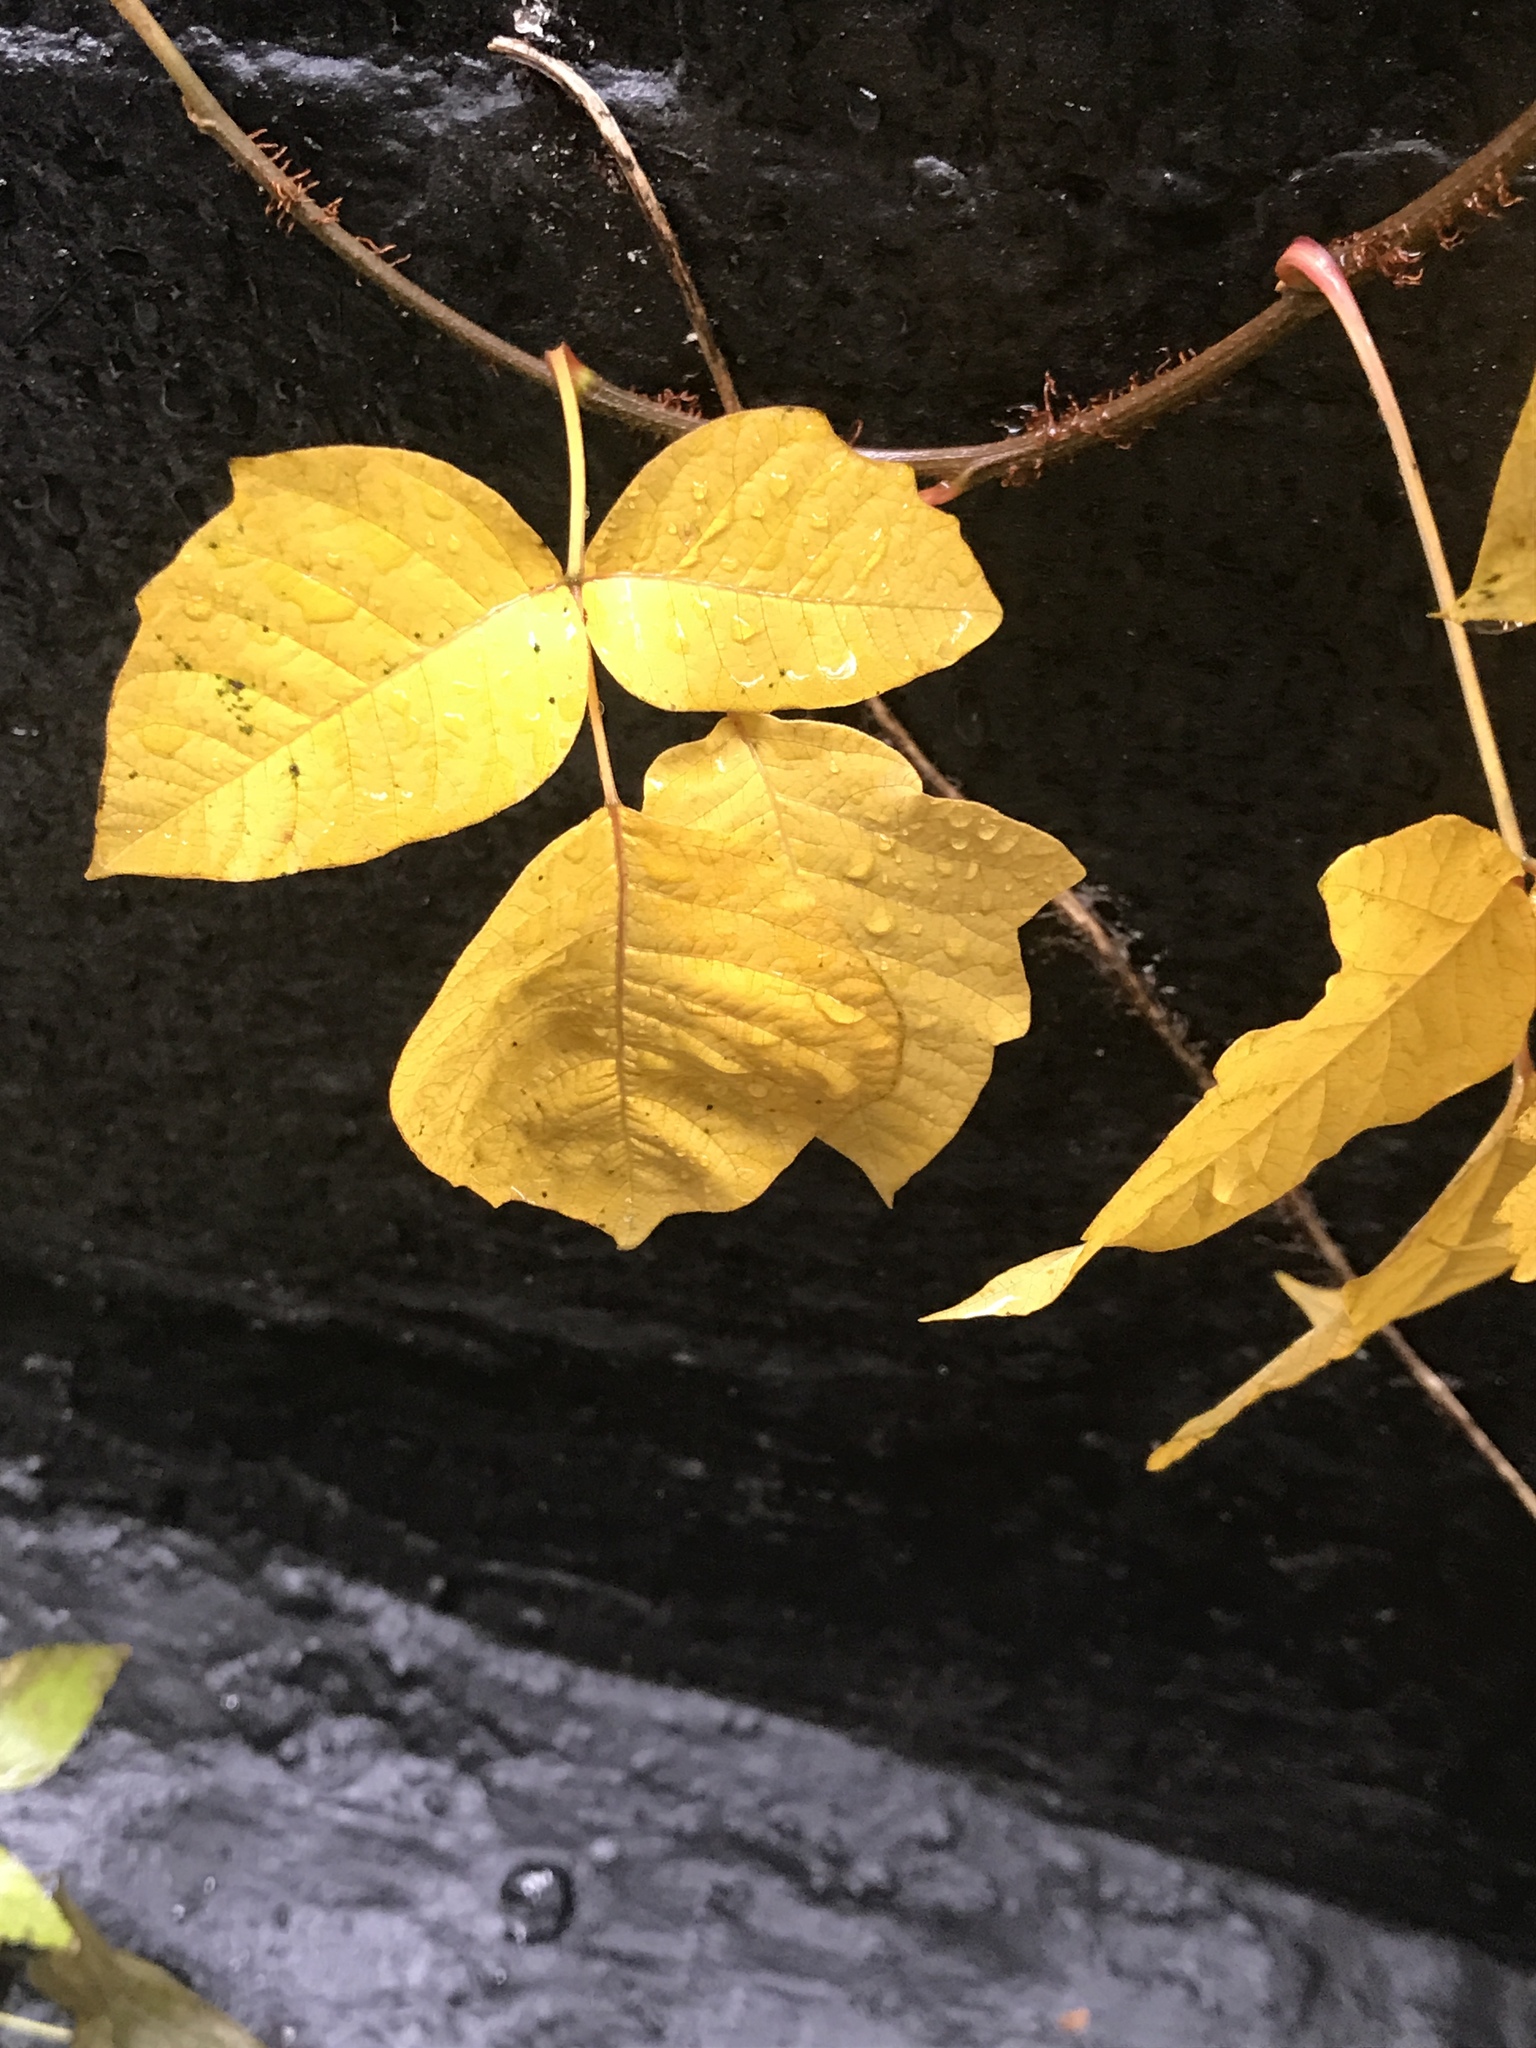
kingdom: Plantae
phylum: Tracheophyta
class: Magnoliopsida
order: Sapindales
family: Anacardiaceae
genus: Toxicodendron
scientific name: Toxicodendron radicans
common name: Poison ivy
